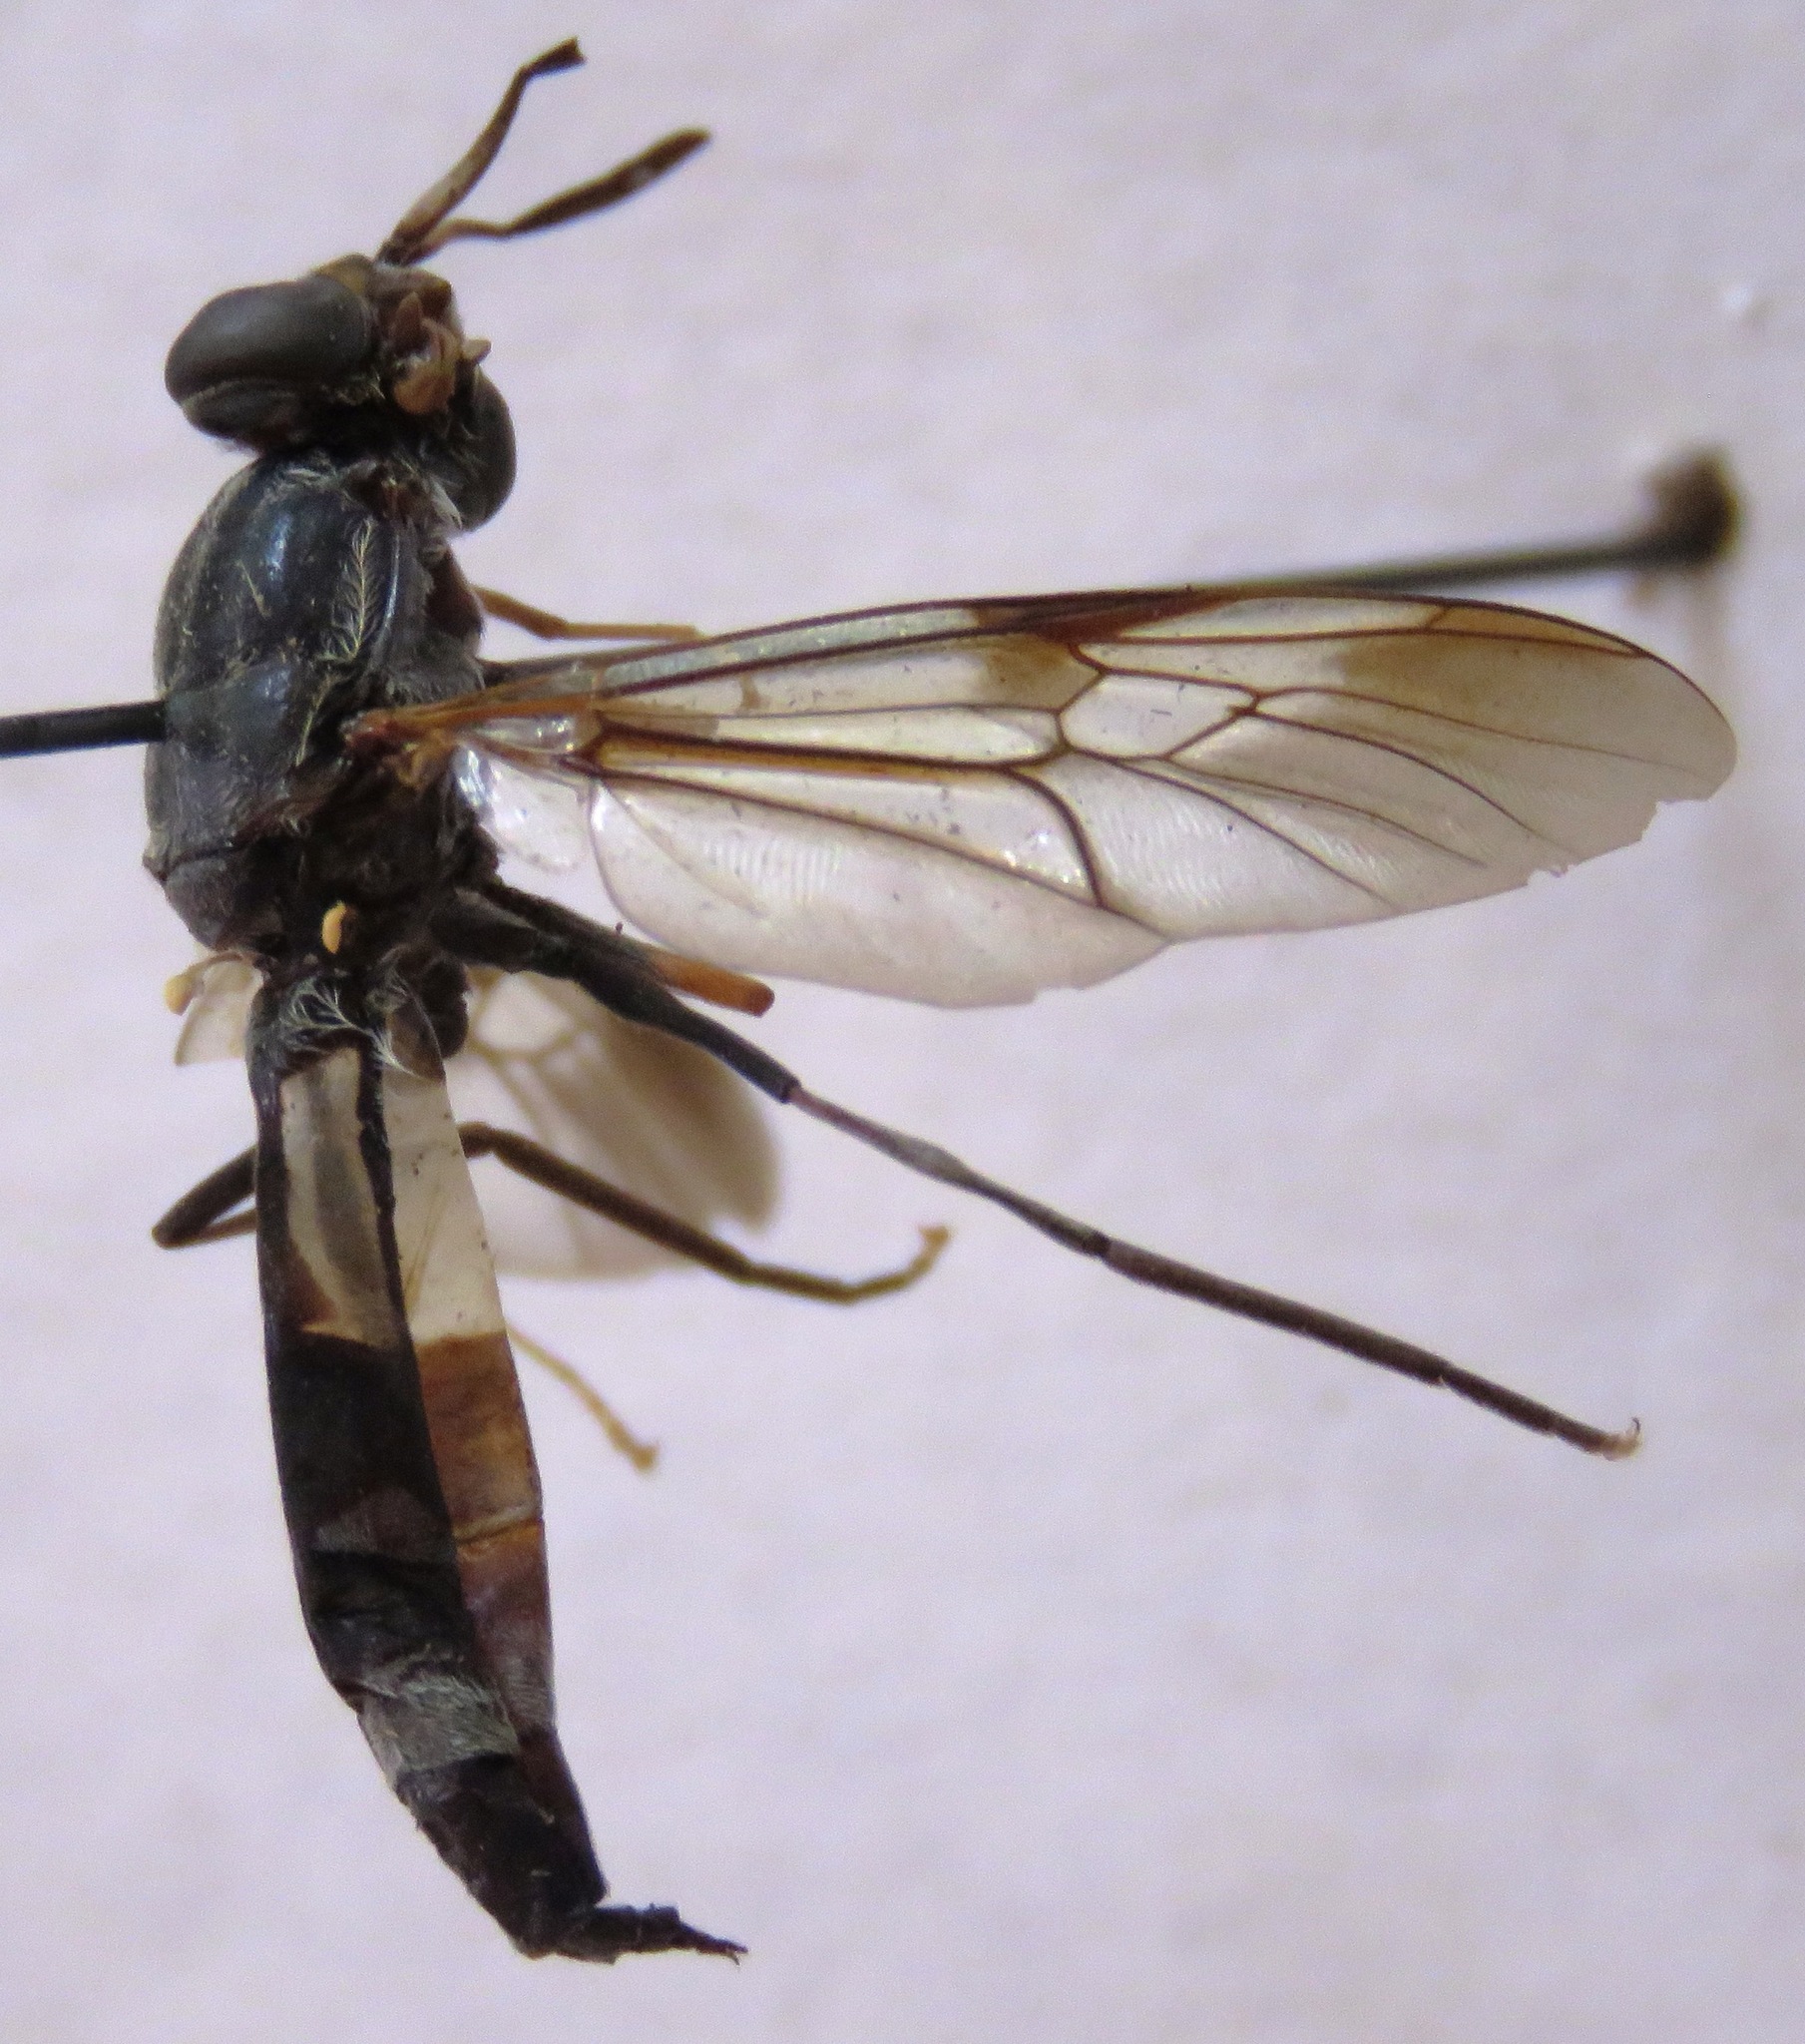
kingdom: Animalia
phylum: Arthropoda
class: Insecta
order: Diptera
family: Stratiomyidae
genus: Hermetia
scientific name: Hermetia pulchra
